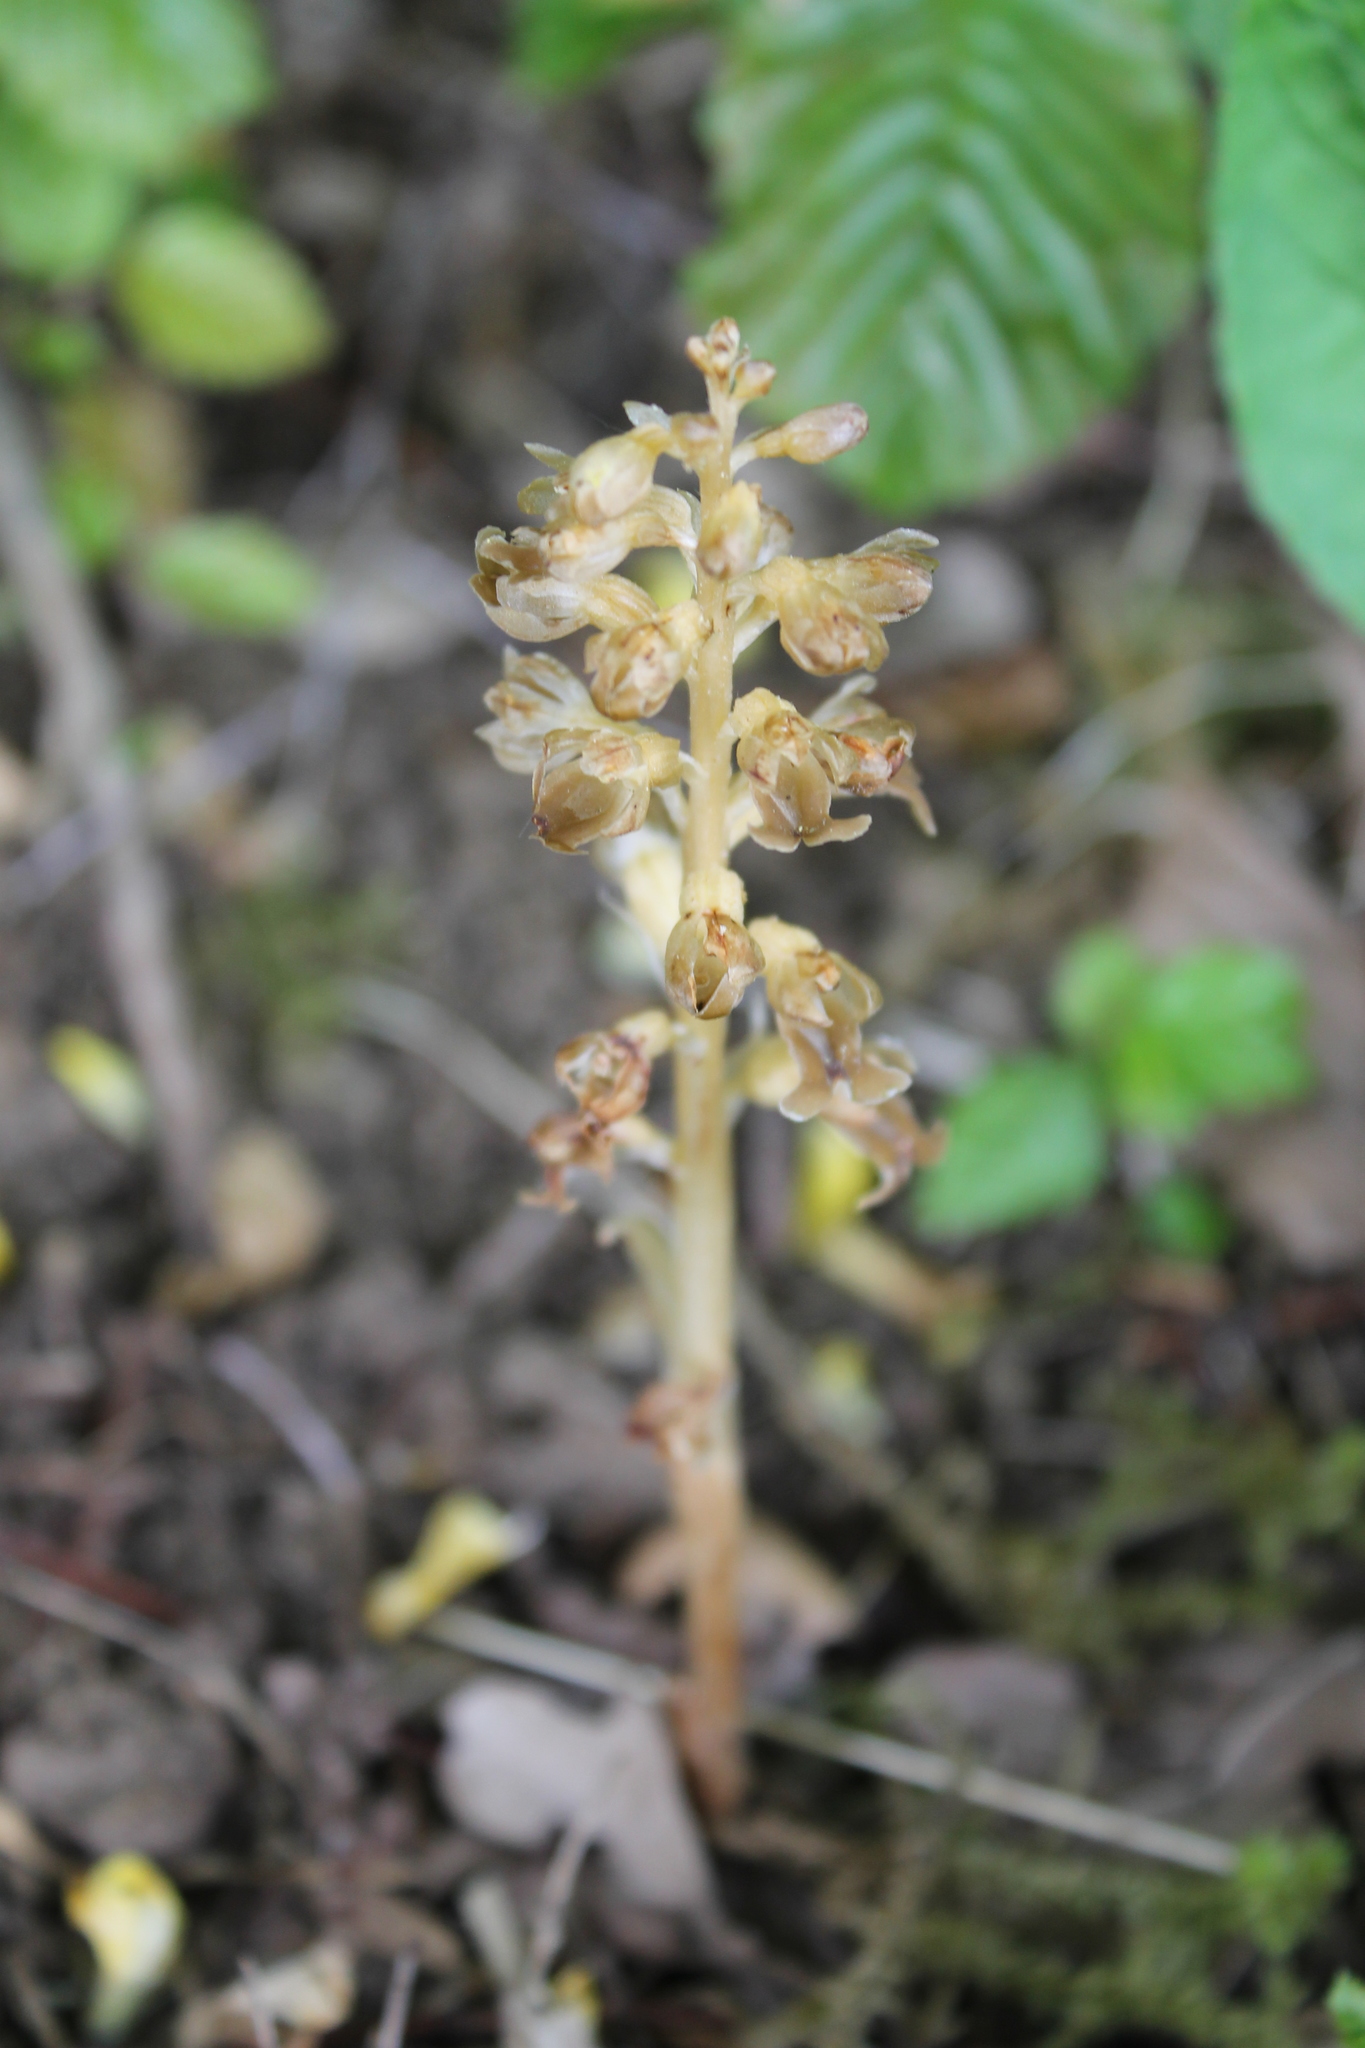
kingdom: Plantae
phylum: Tracheophyta
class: Liliopsida
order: Asparagales
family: Orchidaceae
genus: Neottia
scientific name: Neottia nidus-avis
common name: Bird's-nest orchid
